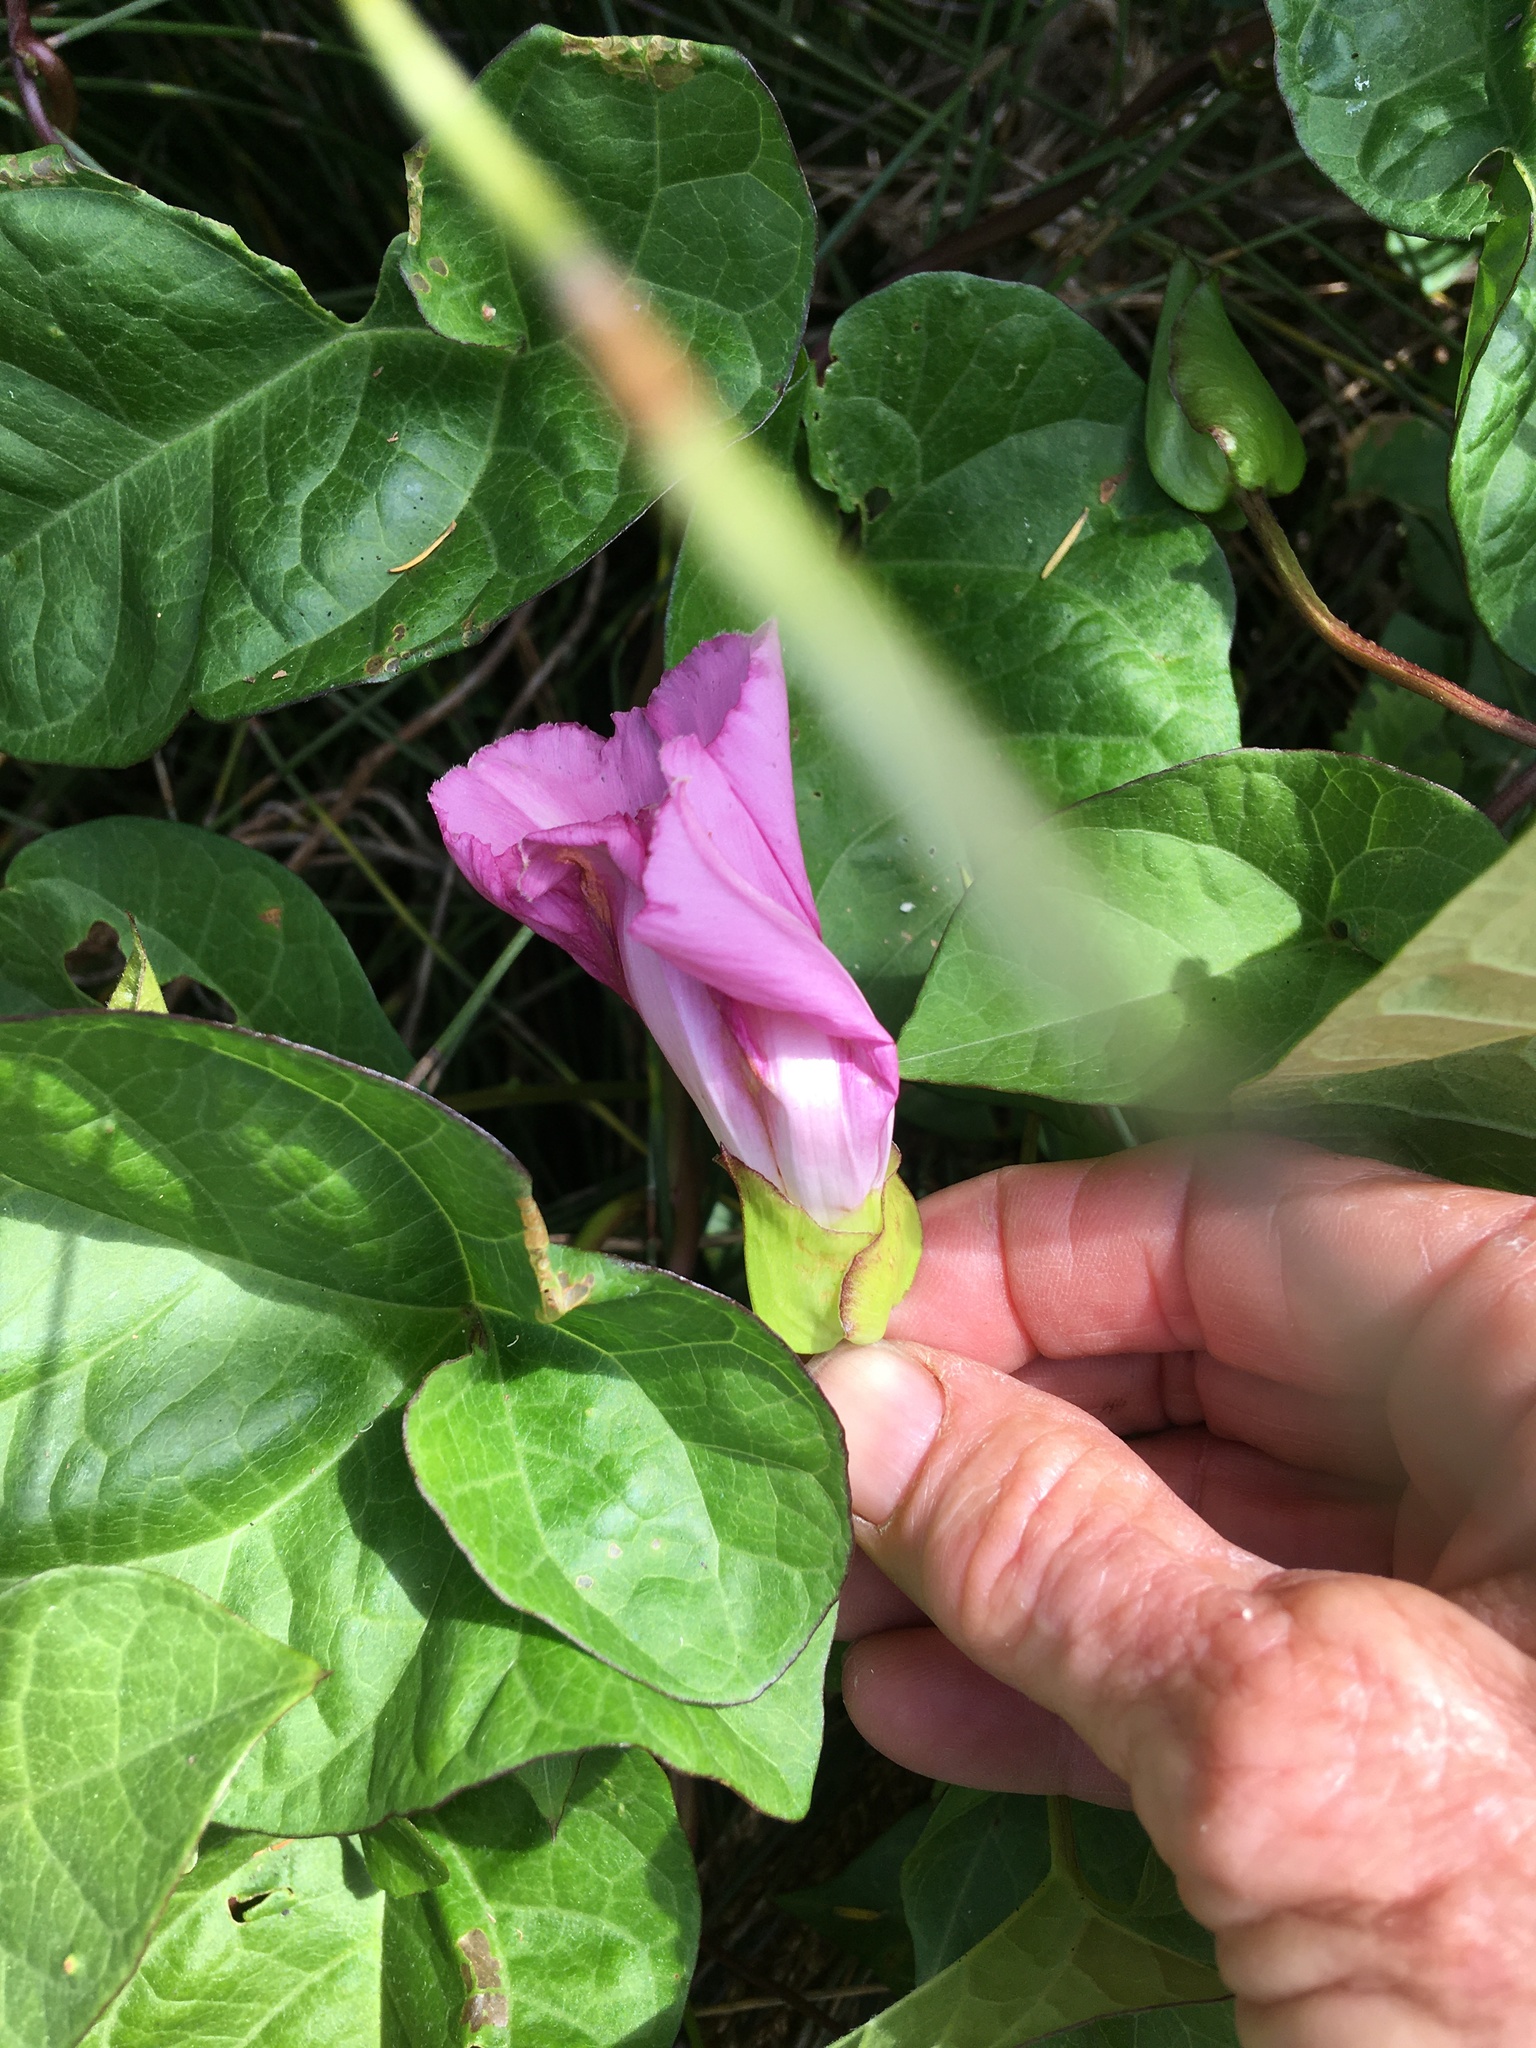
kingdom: Plantae
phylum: Tracheophyta
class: Magnoliopsida
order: Solanales
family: Convolvulaceae
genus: Calystegia
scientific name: Calystegia sepium
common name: Hedge bindweed
